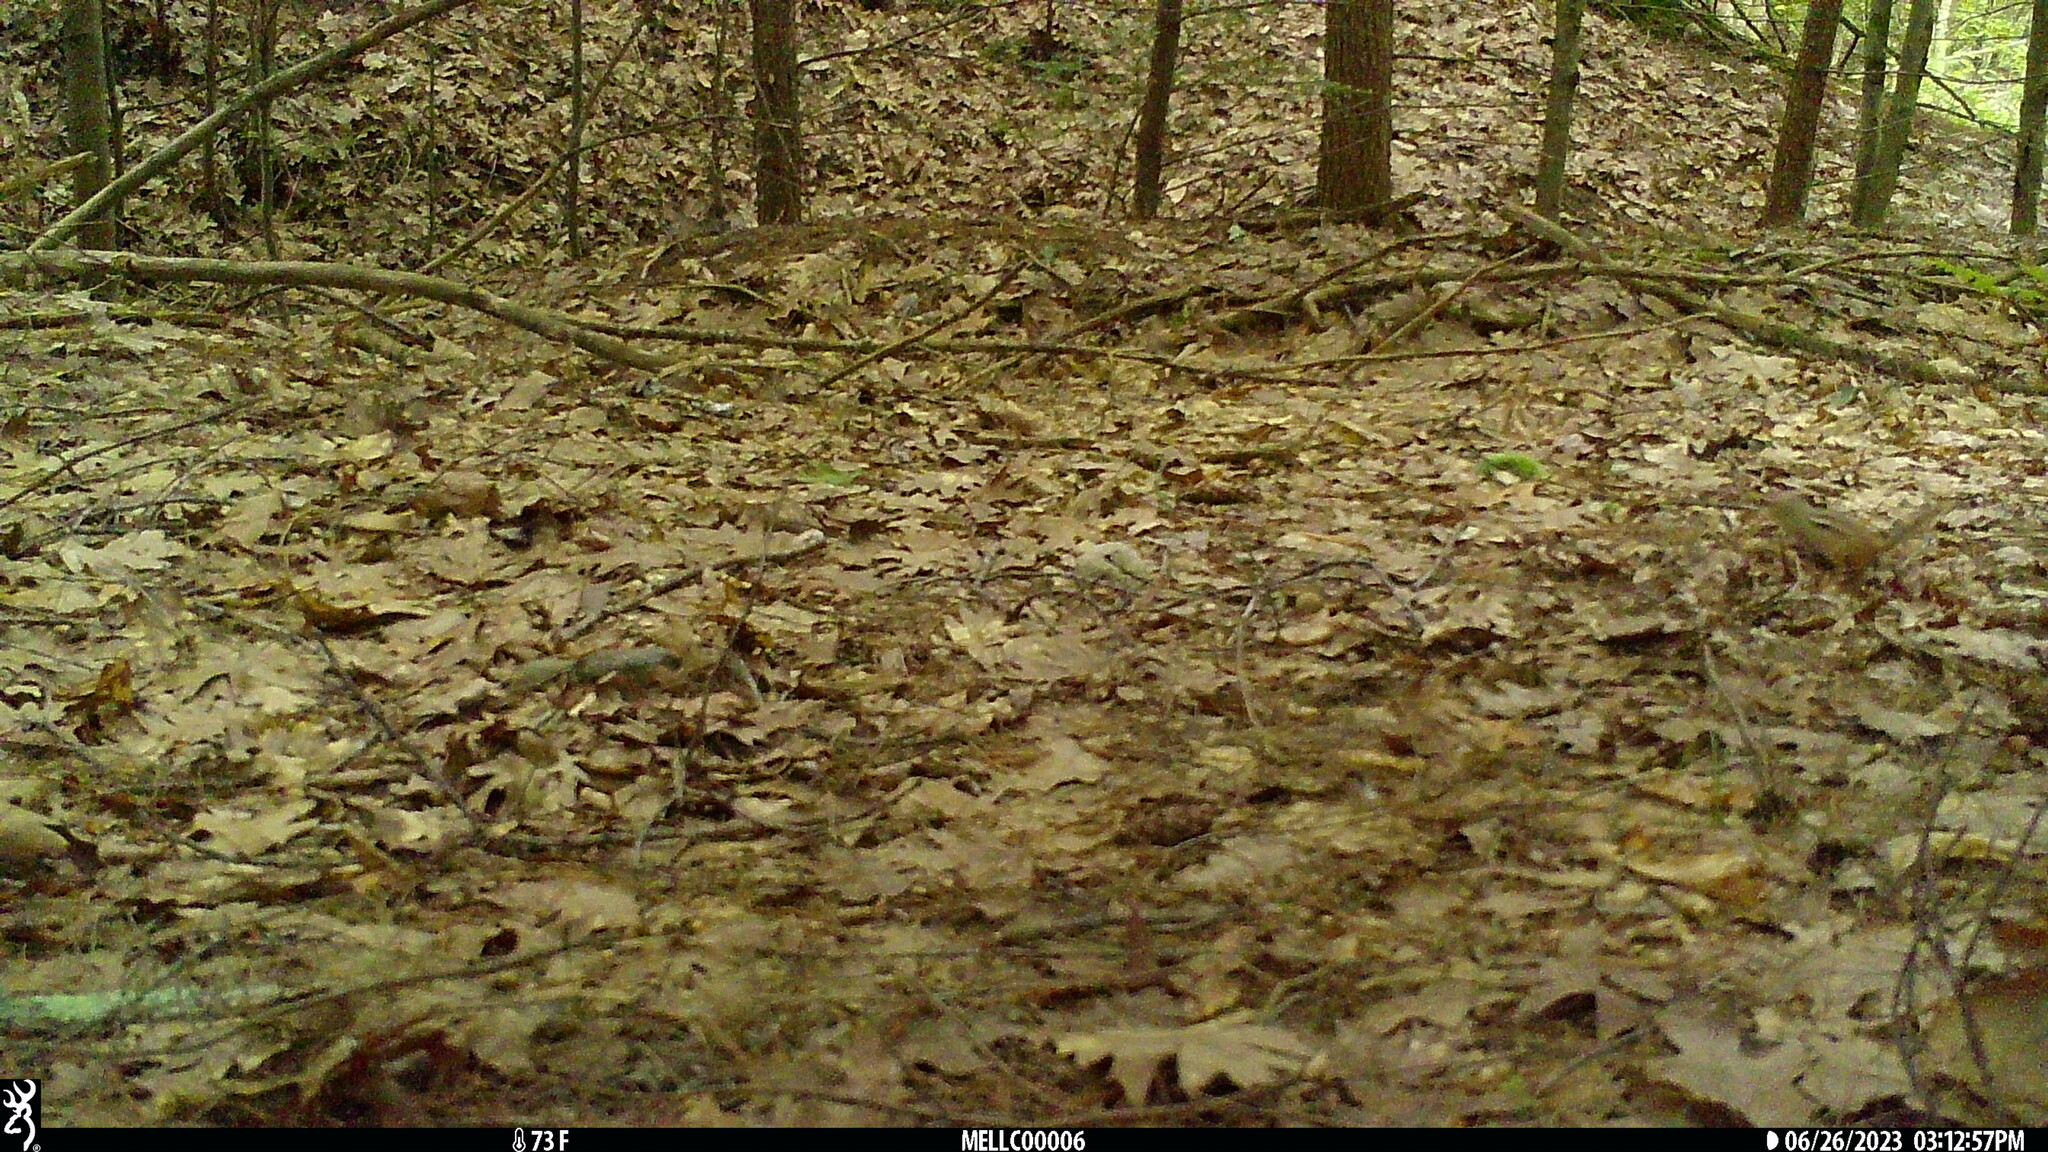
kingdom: Animalia
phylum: Chordata
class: Mammalia
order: Rodentia
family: Sciuridae
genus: Tamias
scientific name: Tamias striatus
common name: Eastern chipmunk
